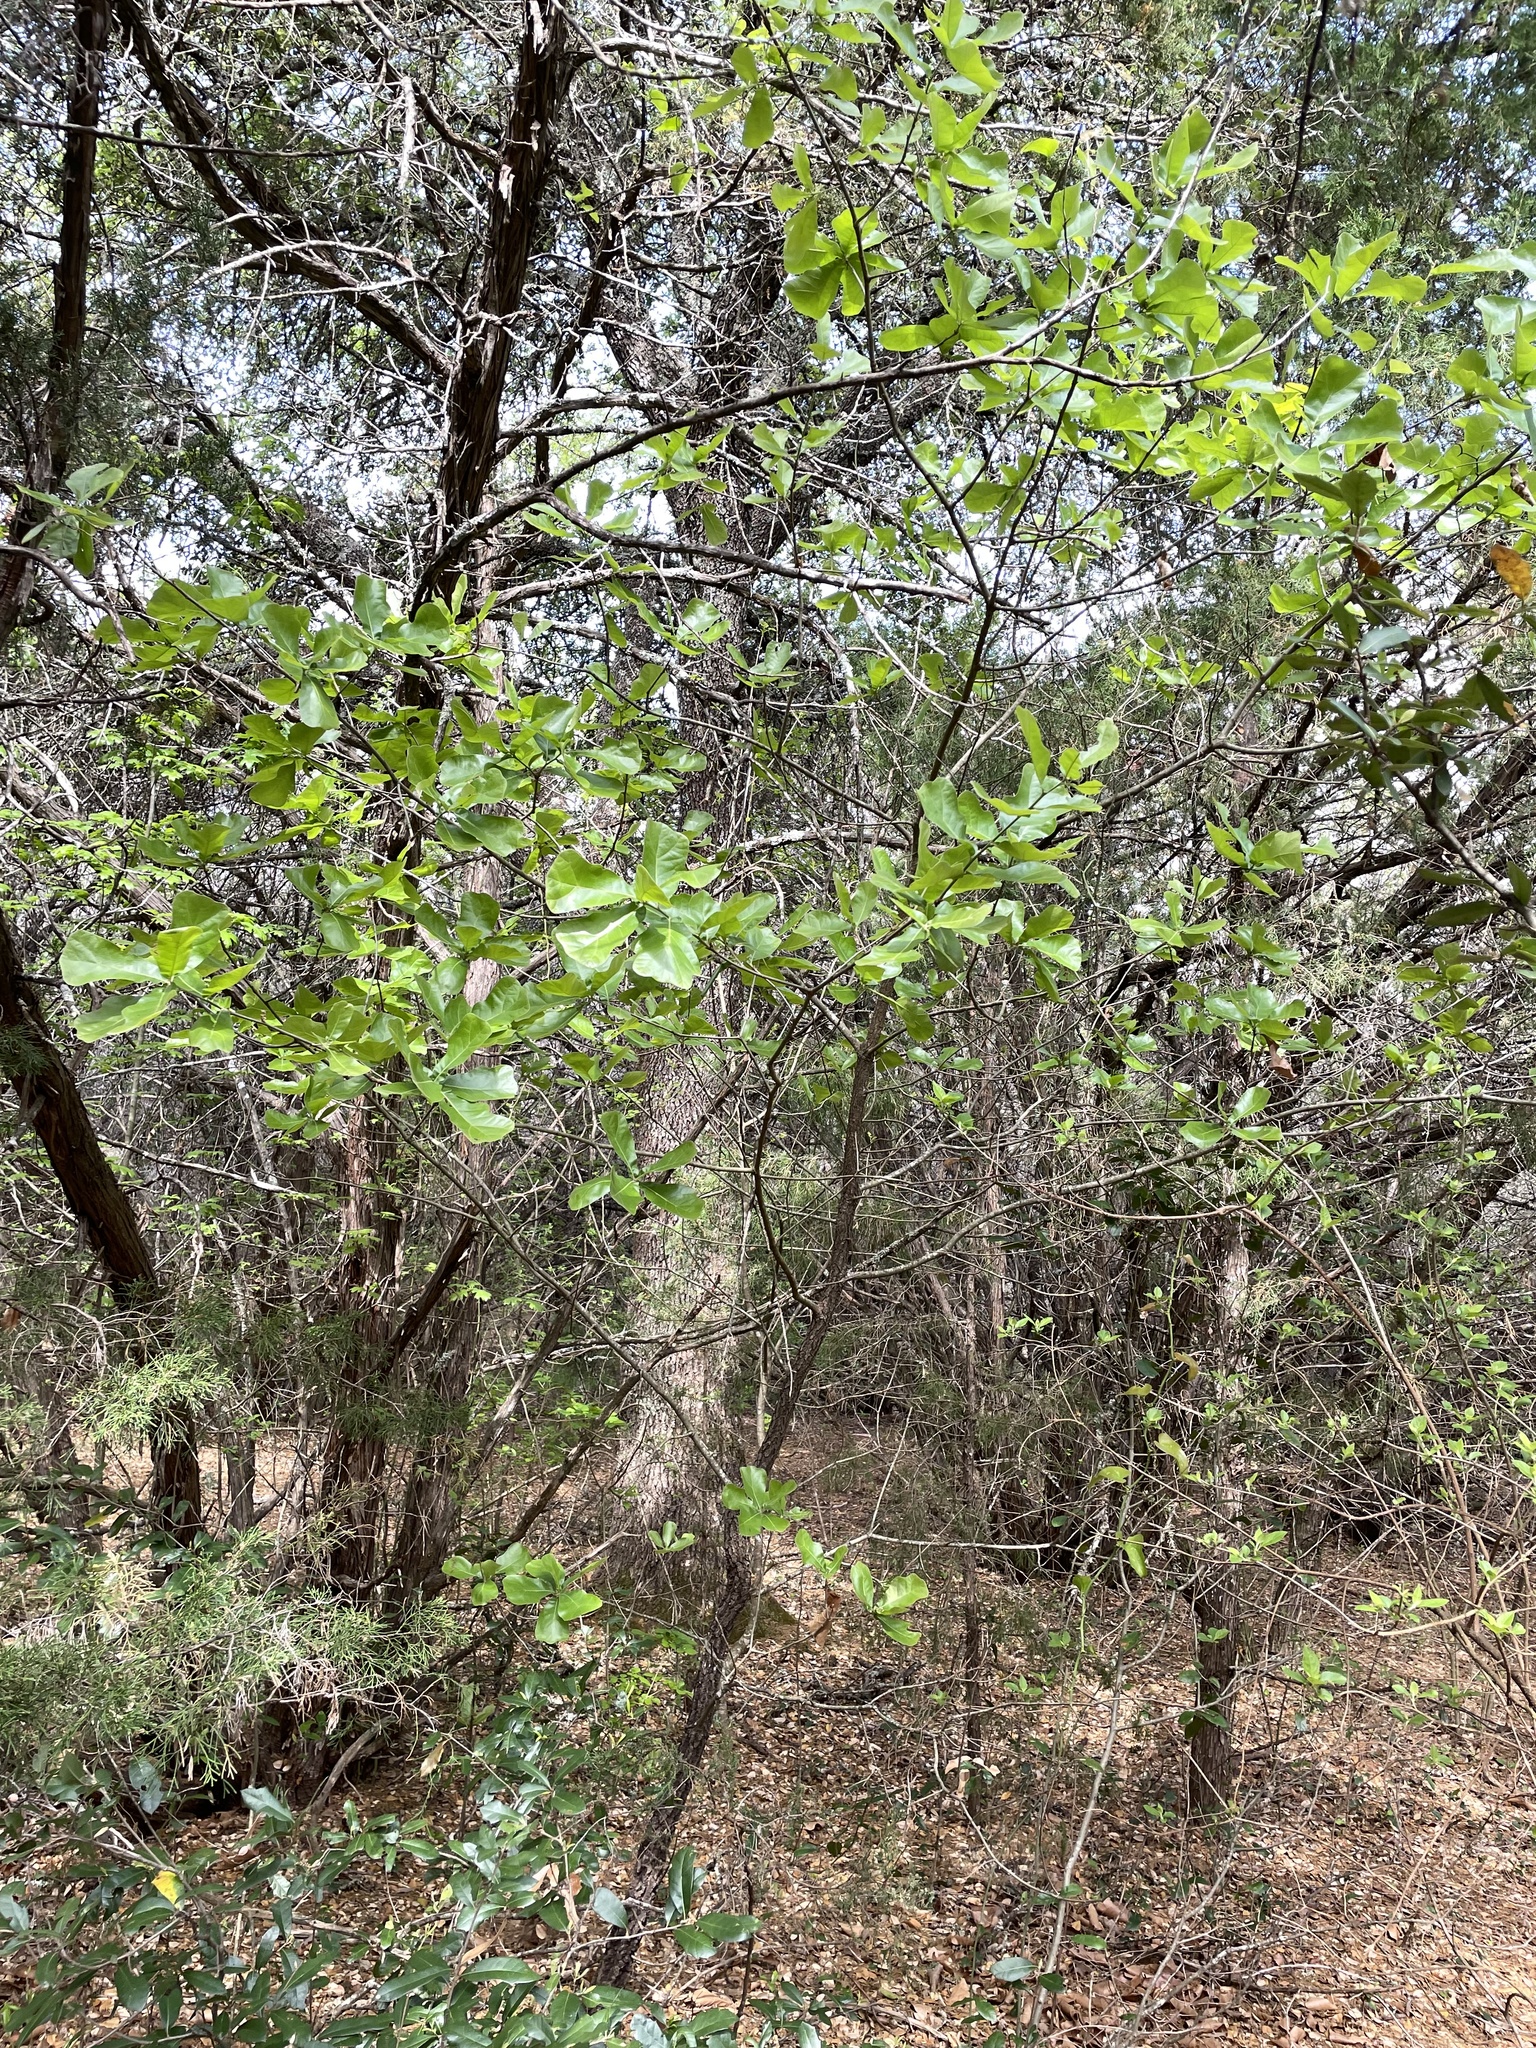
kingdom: Plantae
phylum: Tracheophyta
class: Magnoliopsida
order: Fagales
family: Fagaceae
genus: Quercus
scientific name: Quercus marilandica
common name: Blackjack oak
